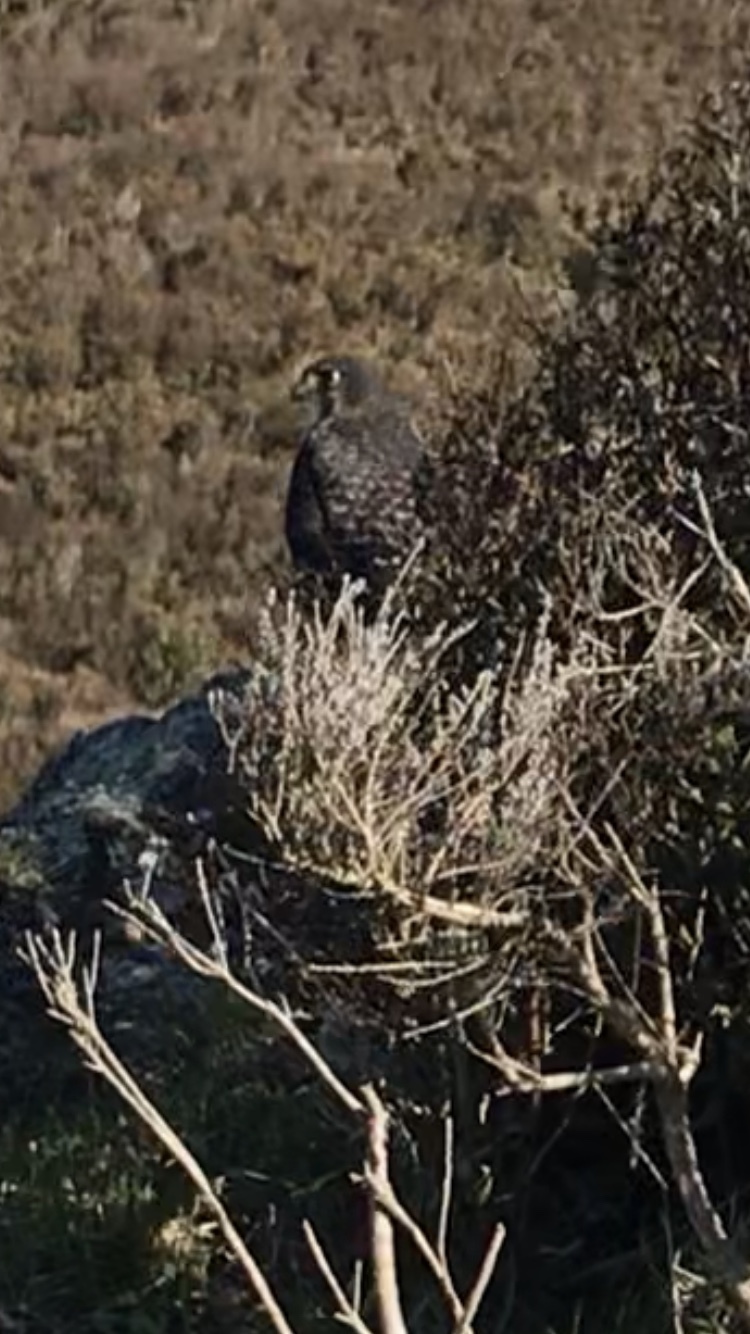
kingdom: Animalia
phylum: Chordata
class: Aves
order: Falconiformes
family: Falconidae
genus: Falco
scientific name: Falco novaeseelandiae
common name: New zealand falcon
